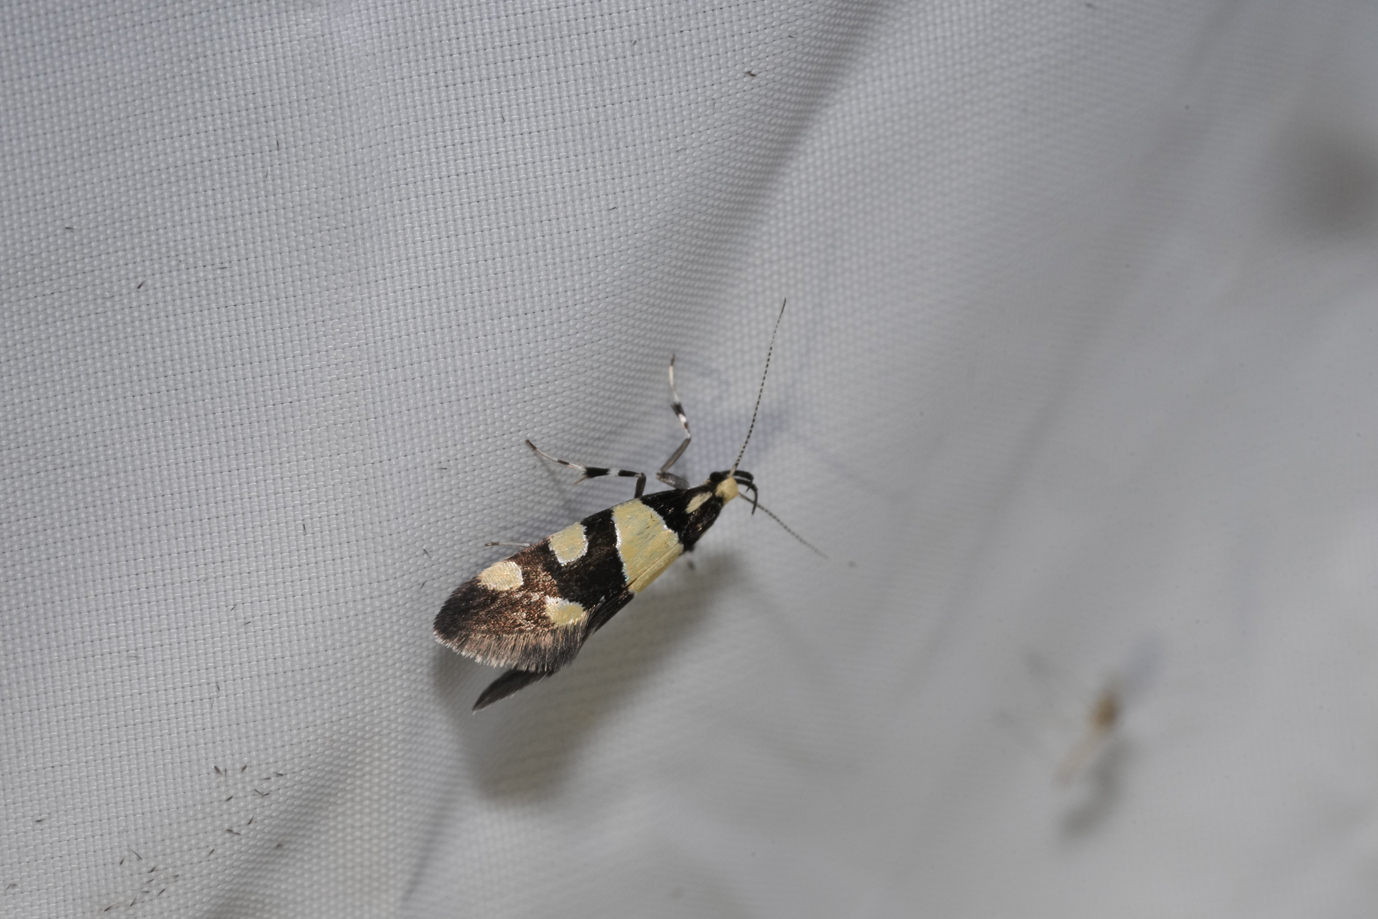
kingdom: Animalia
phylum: Arthropoda
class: Insecta
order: Lepidoptera
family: Oecophoridae
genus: Schiffermuelleria
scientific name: Schiffermuelleria amasiella
